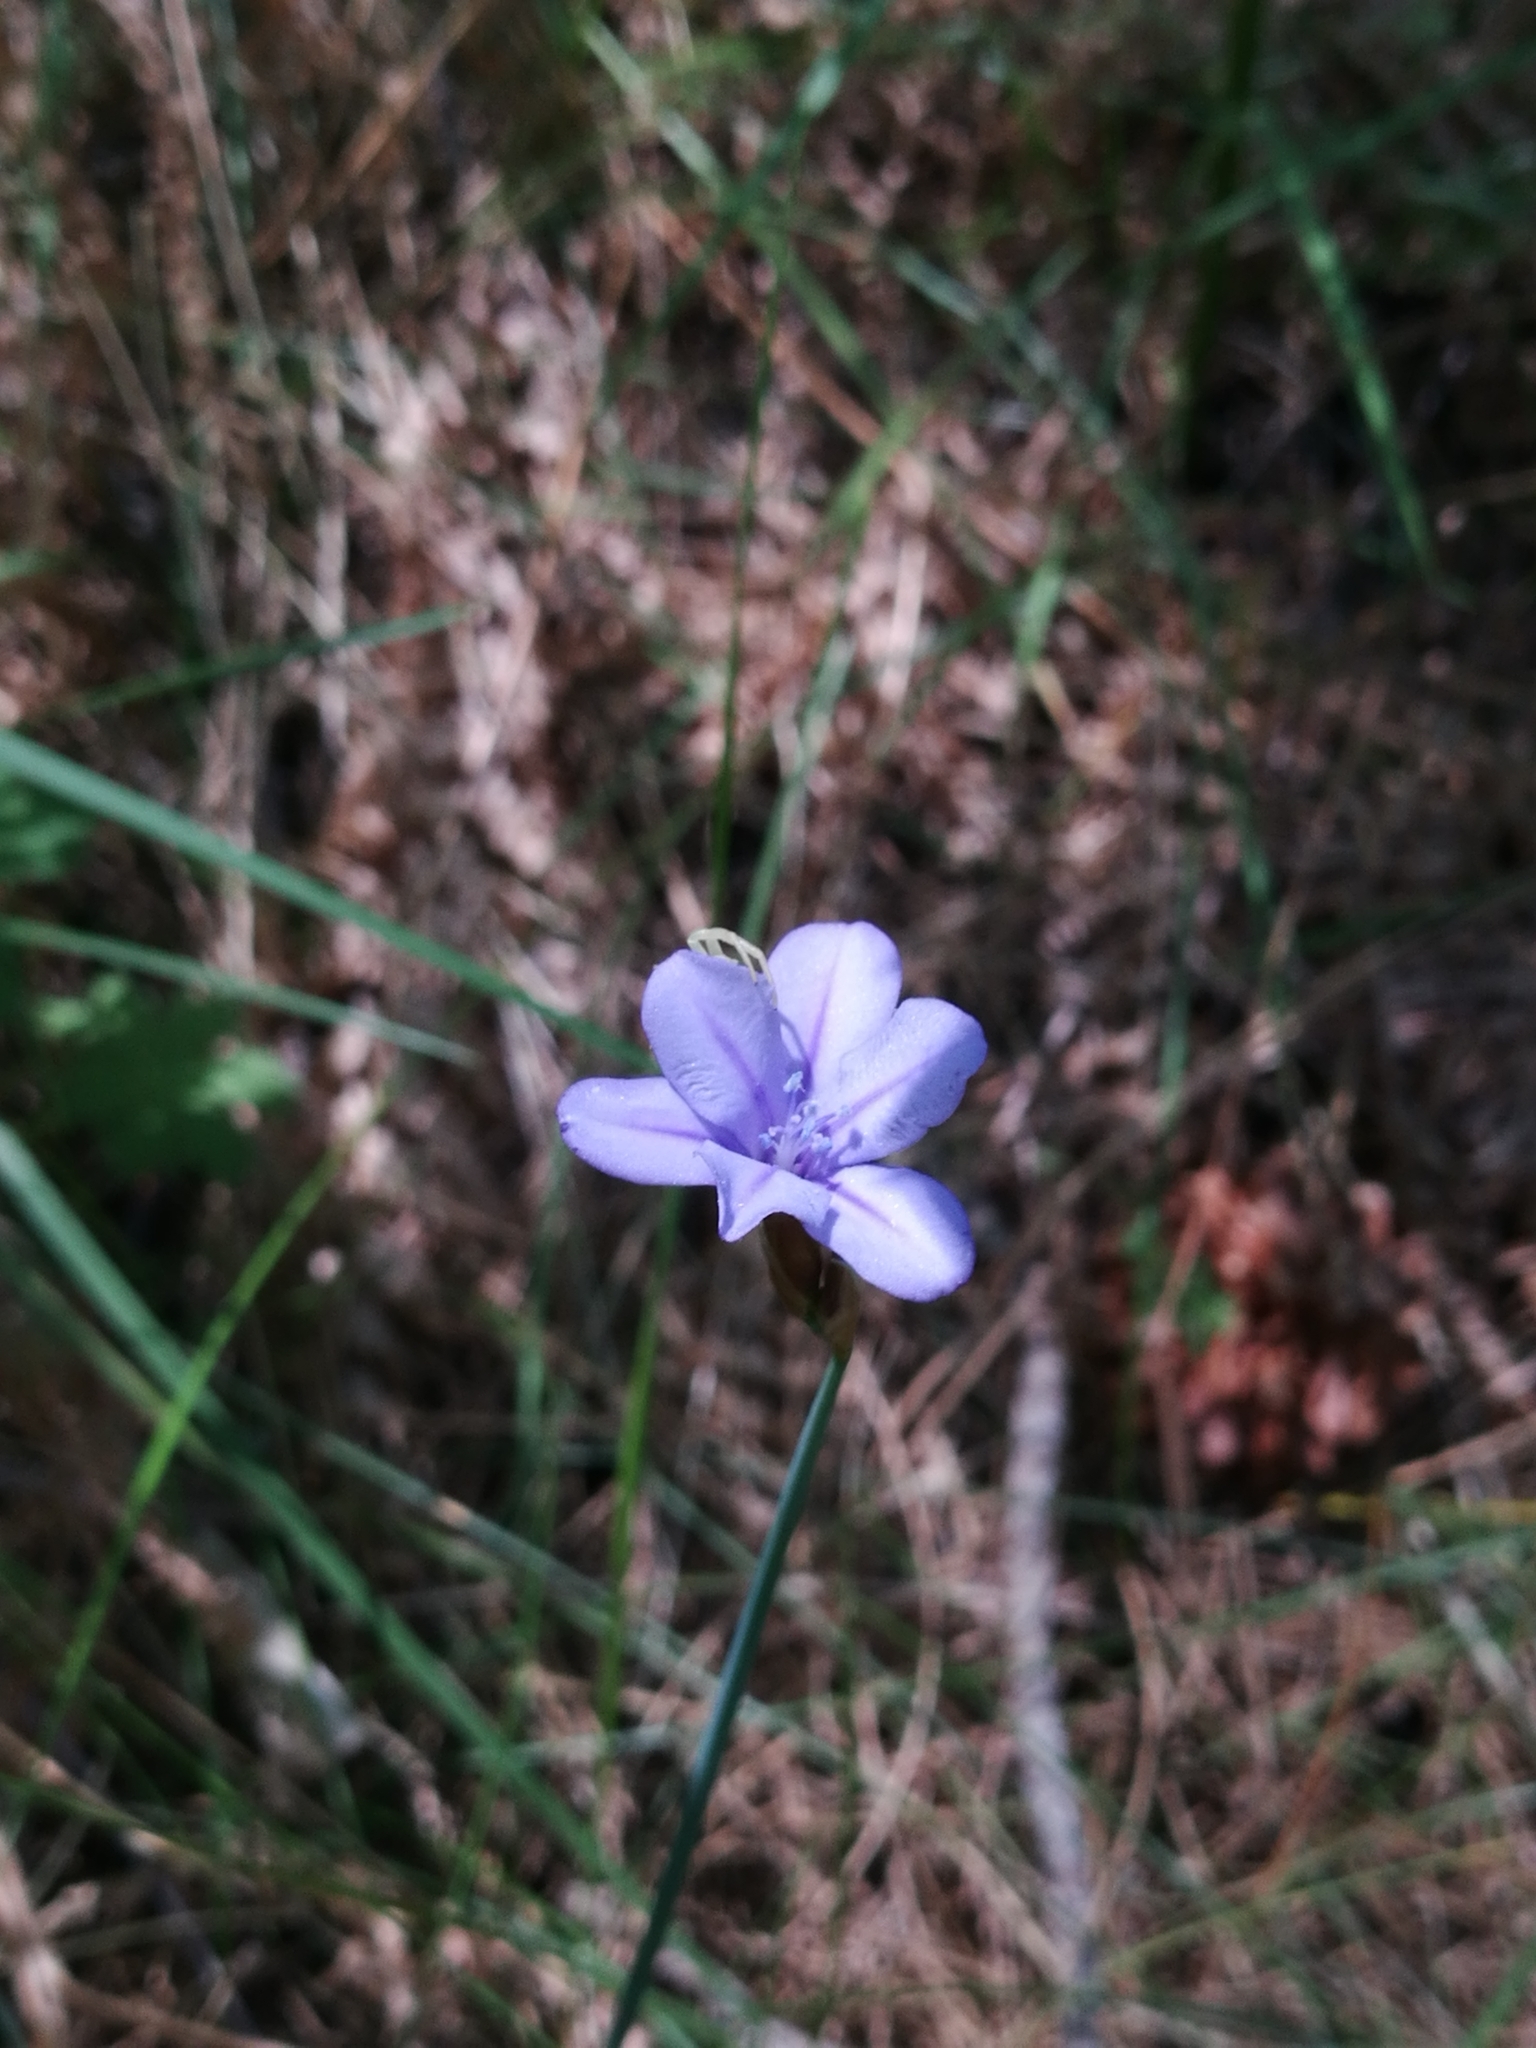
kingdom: Plantae
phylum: Tracheophyta
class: Liliopsida
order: Asparagales
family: Asparagaceae
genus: Aphyllanthes
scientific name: Aphyllanthes monspeliensis
